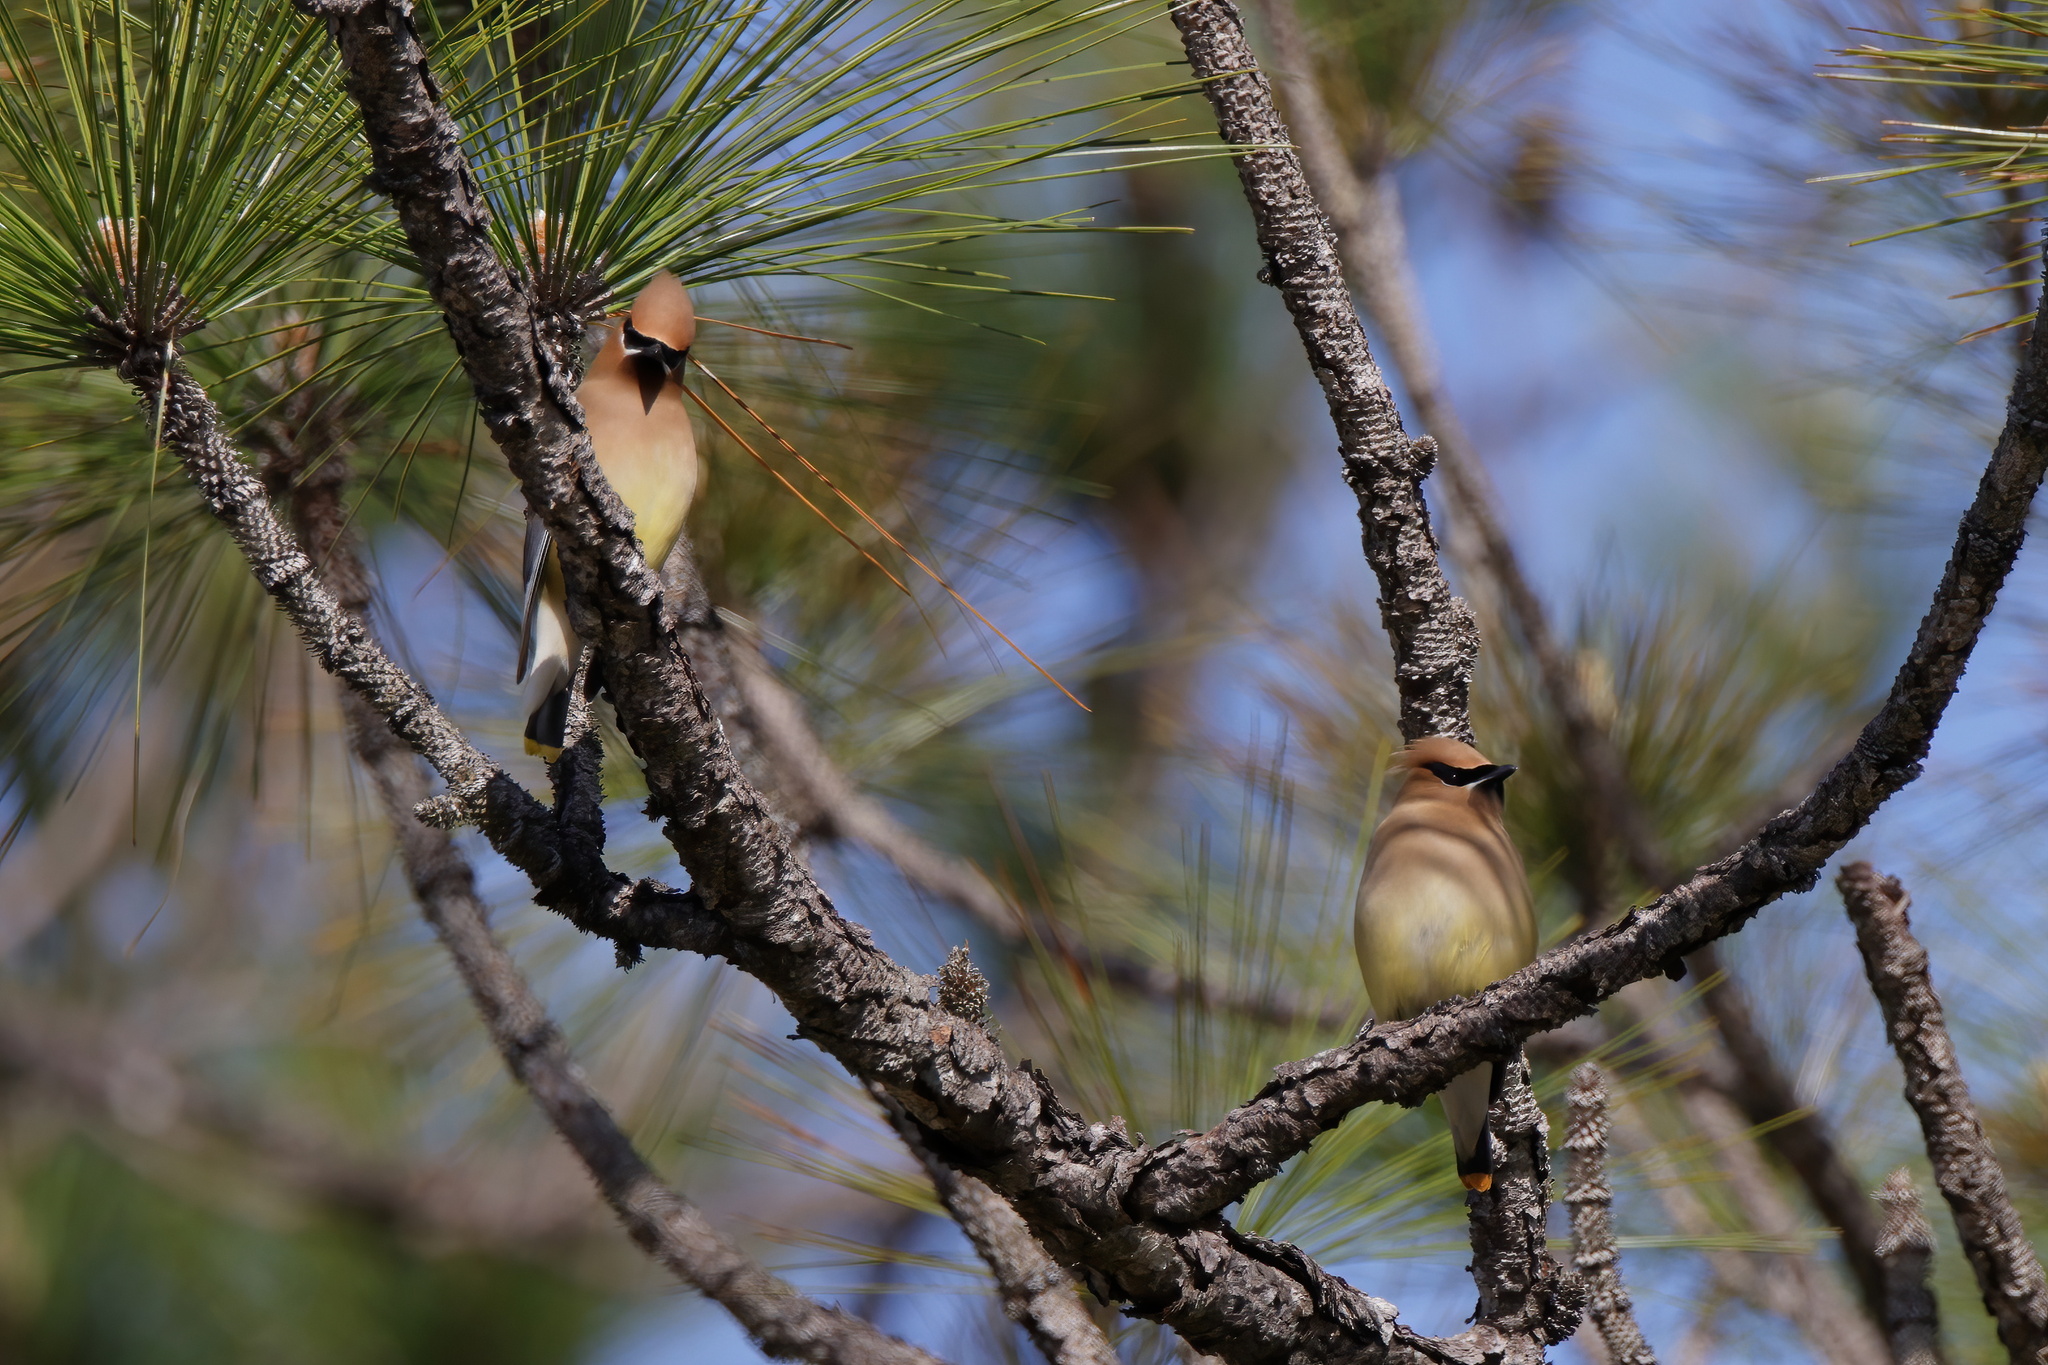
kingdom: Animalia
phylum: Chordata
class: Aves
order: Passeriformes
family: Bombycillidae
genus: Bombycilla
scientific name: Bombycilla cedrorum
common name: Cedar waxwing
